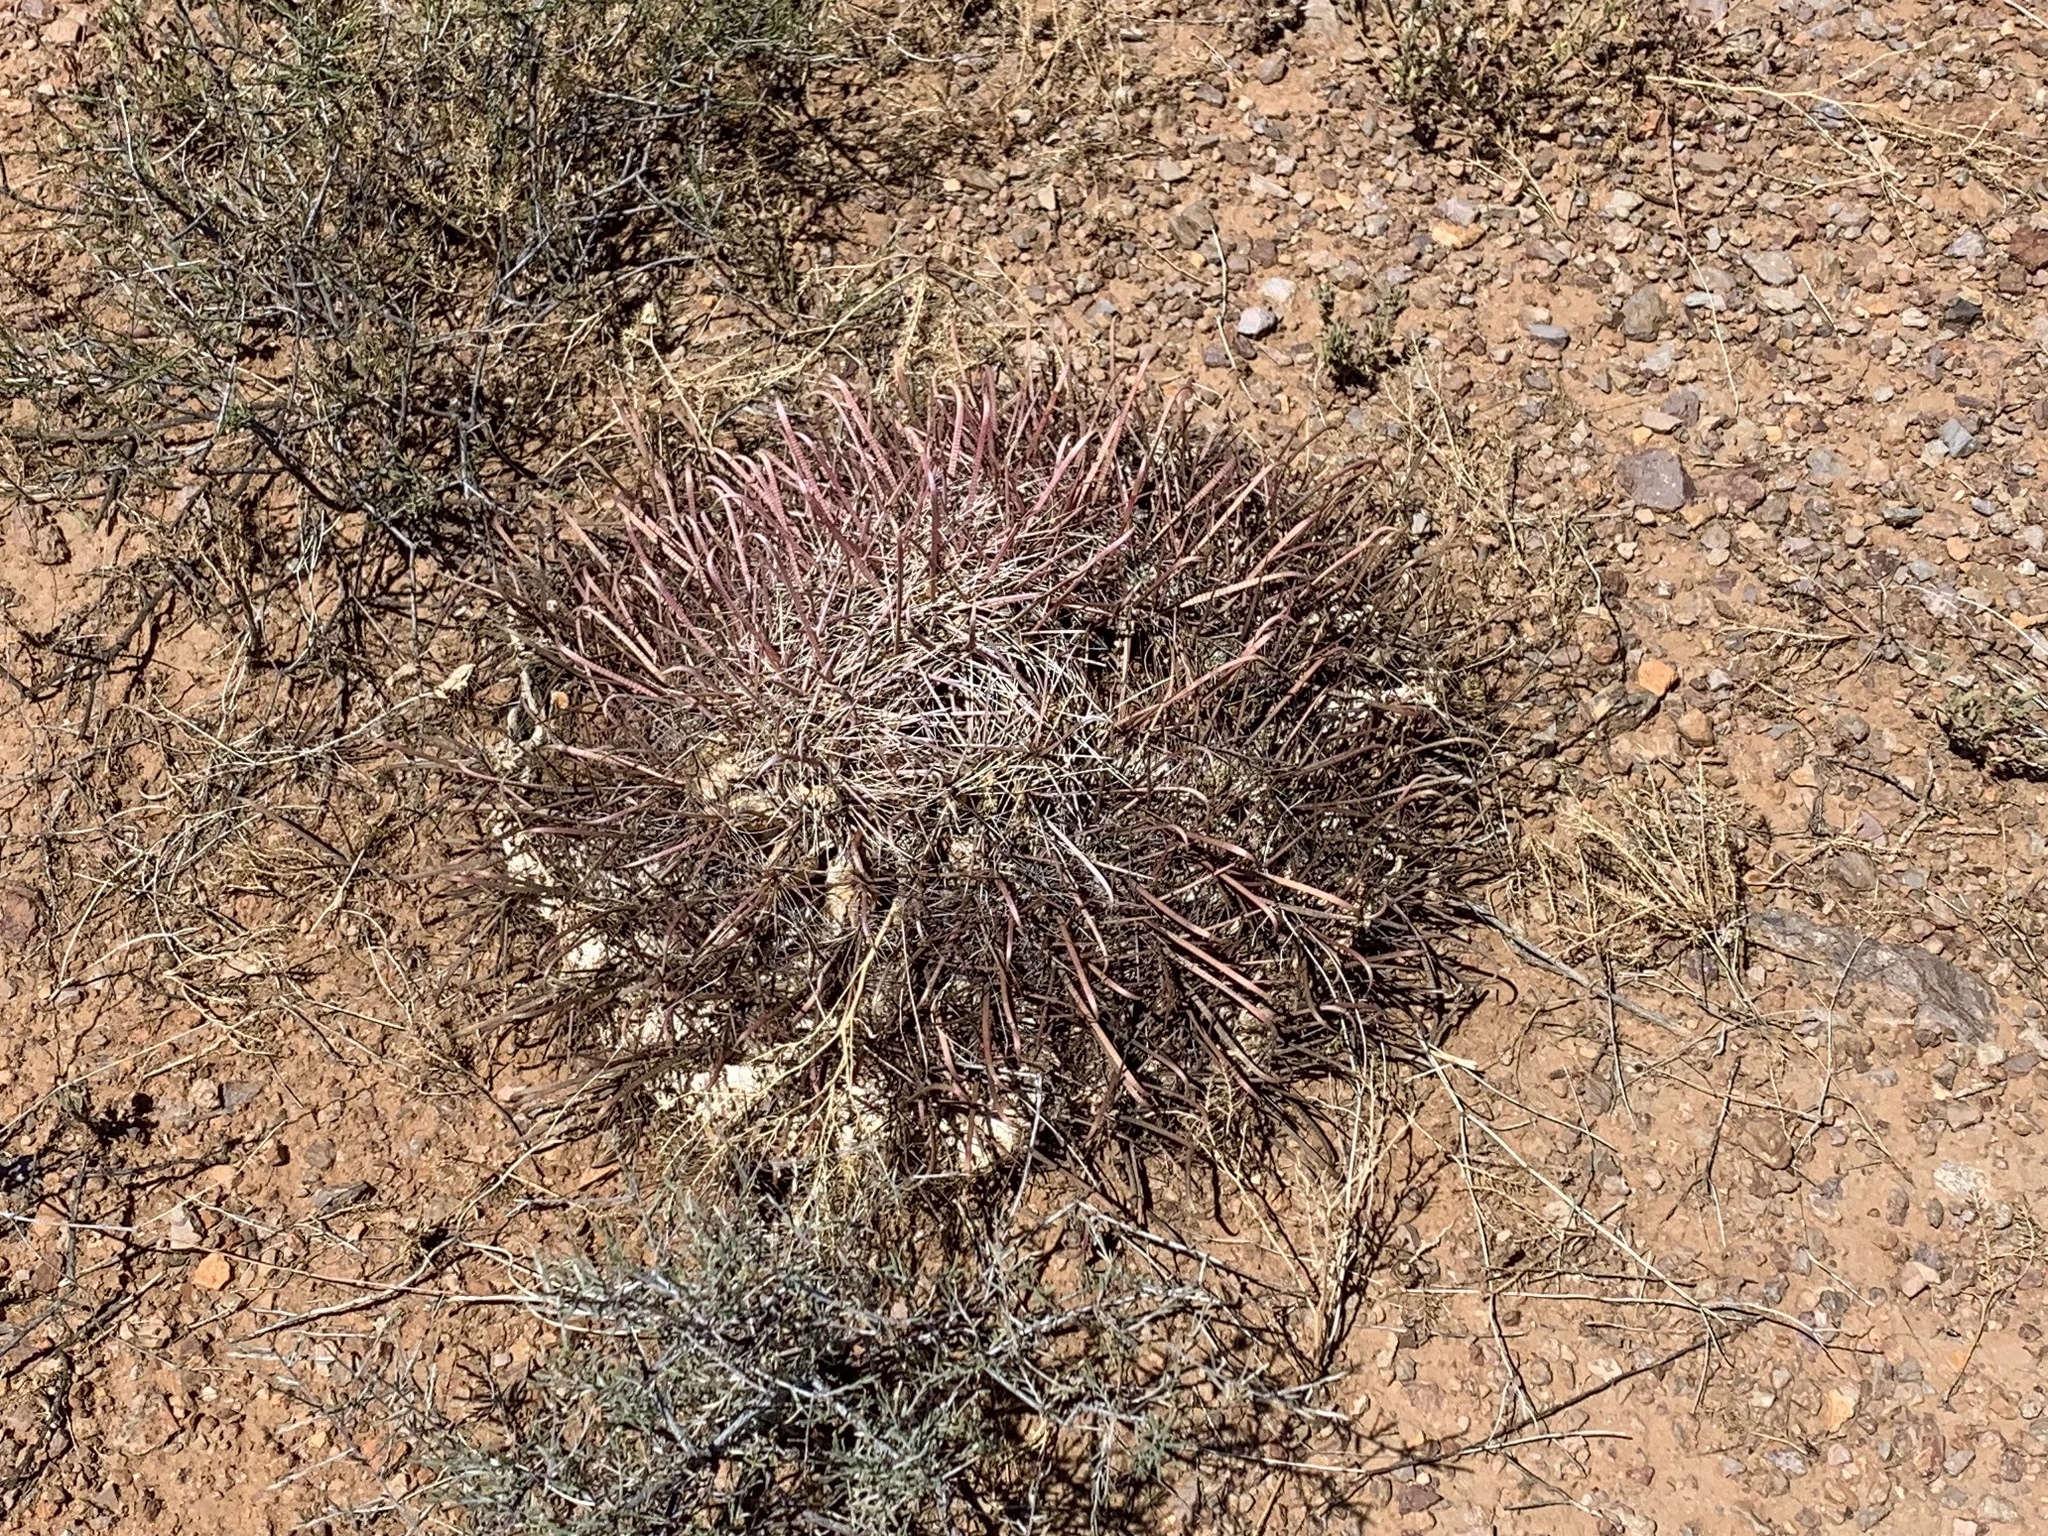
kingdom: Plantae
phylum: Tracheophyta
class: Magnoliopsida
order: Caryophyllales
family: Cactaceae
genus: Ferocactus
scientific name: Ferocactus wislizeni
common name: Candy barrel cactus
